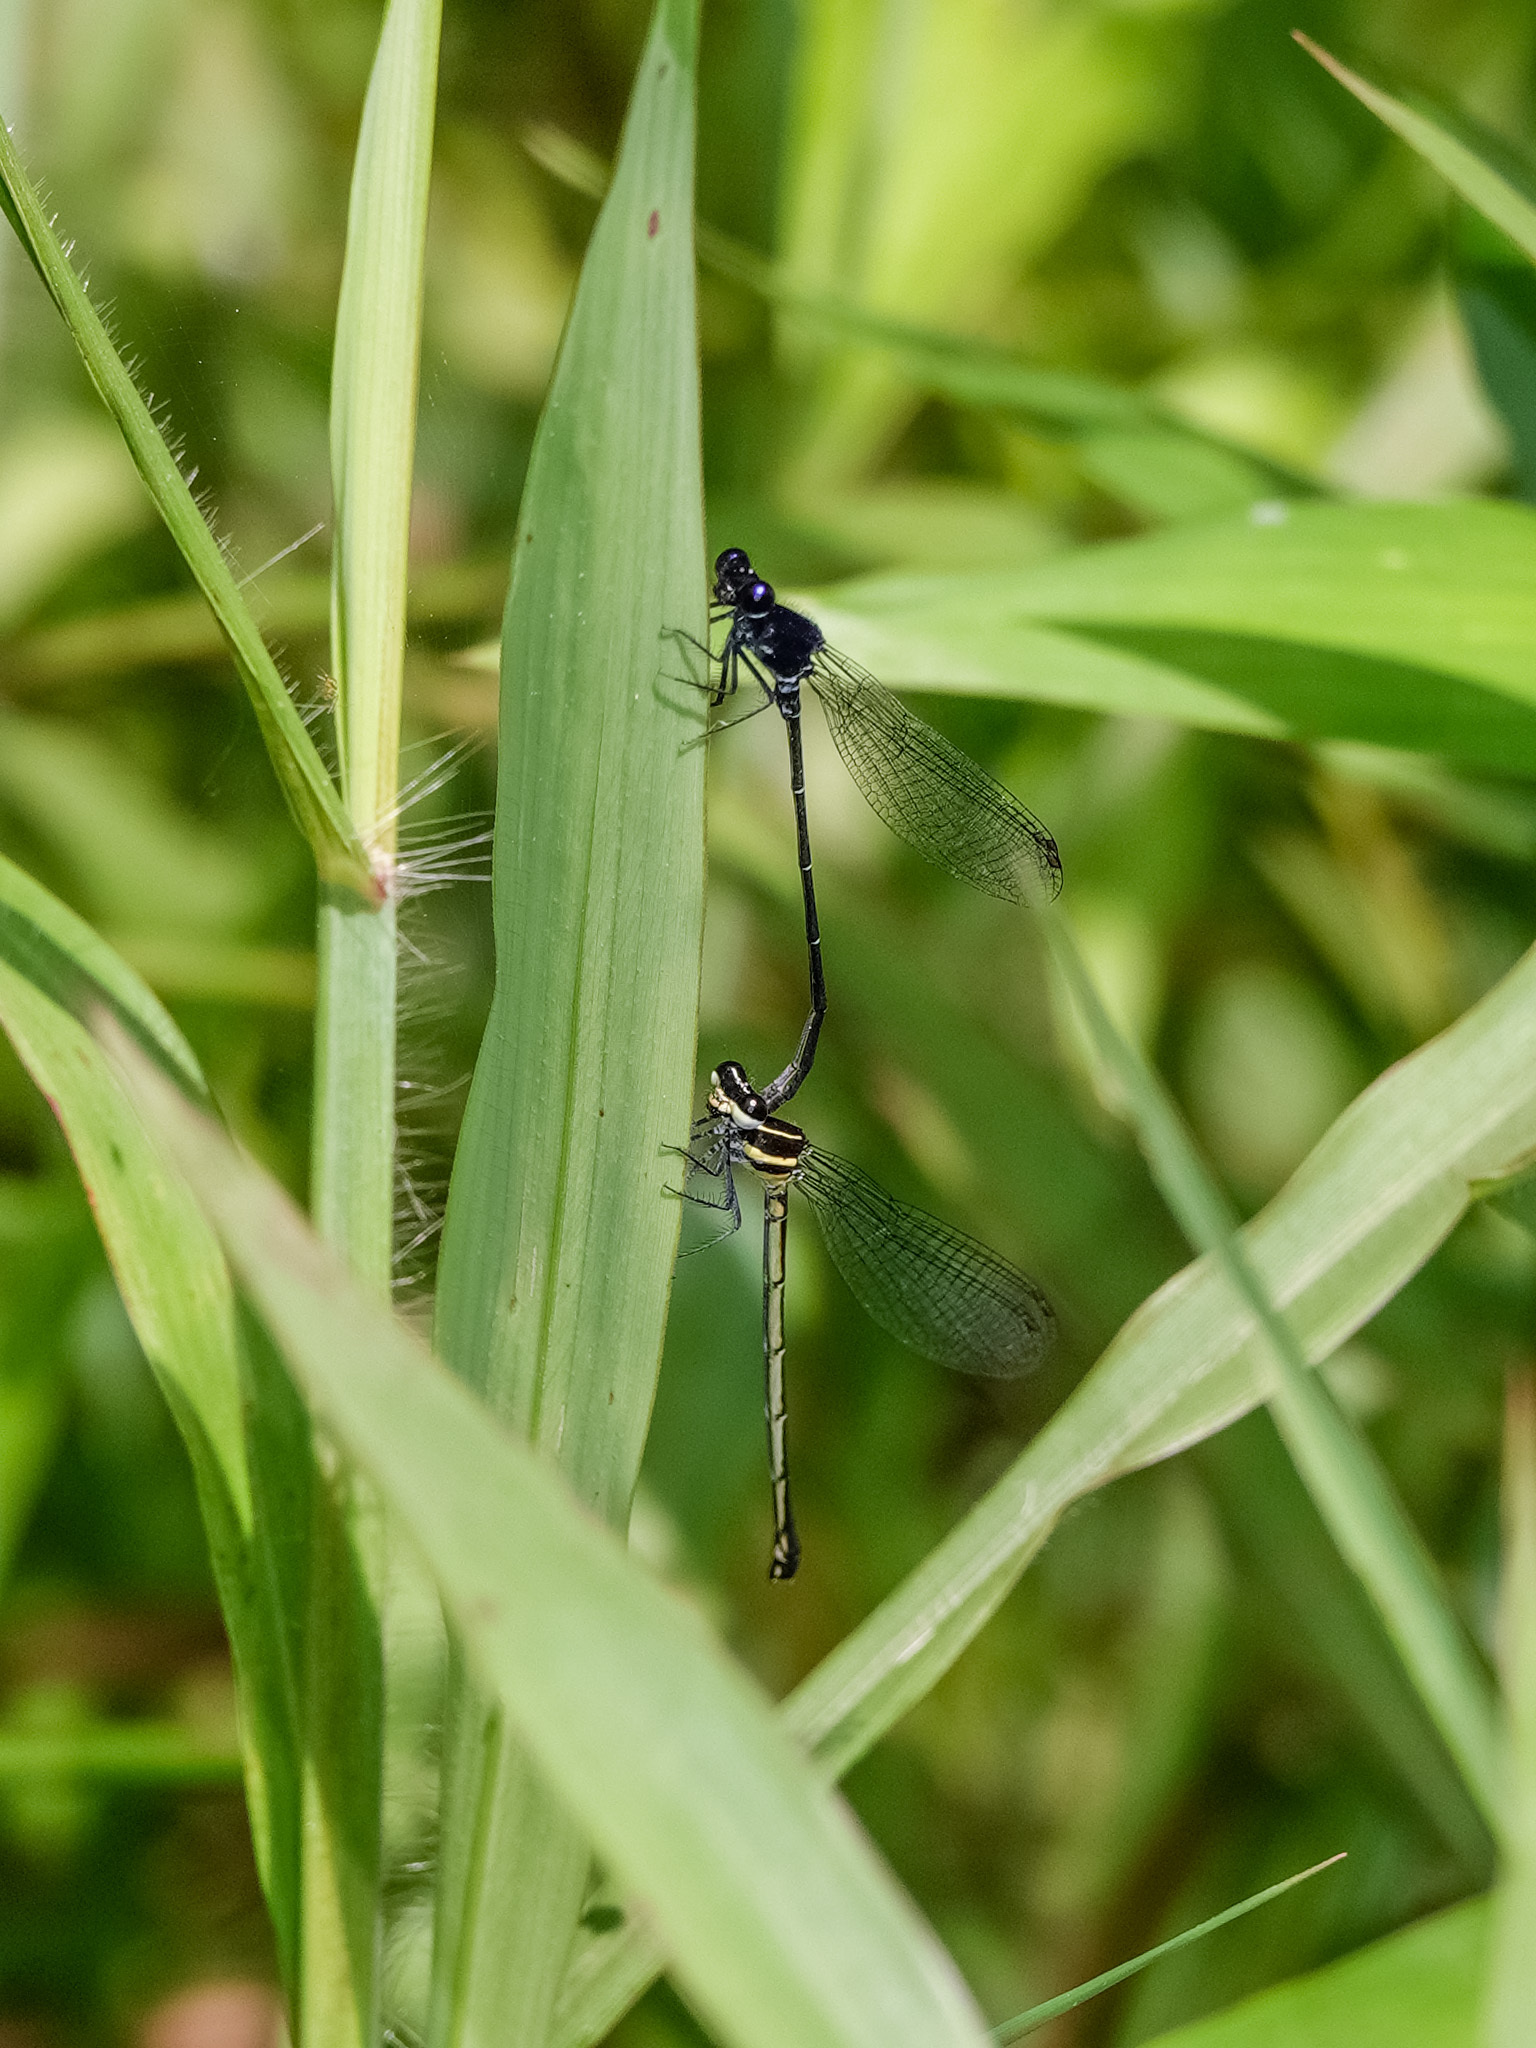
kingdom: Animalia
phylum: Arthropoda
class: Insecta
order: Odonata
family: Platycnemididae
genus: Onychargia
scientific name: Onychargia atrocyana
